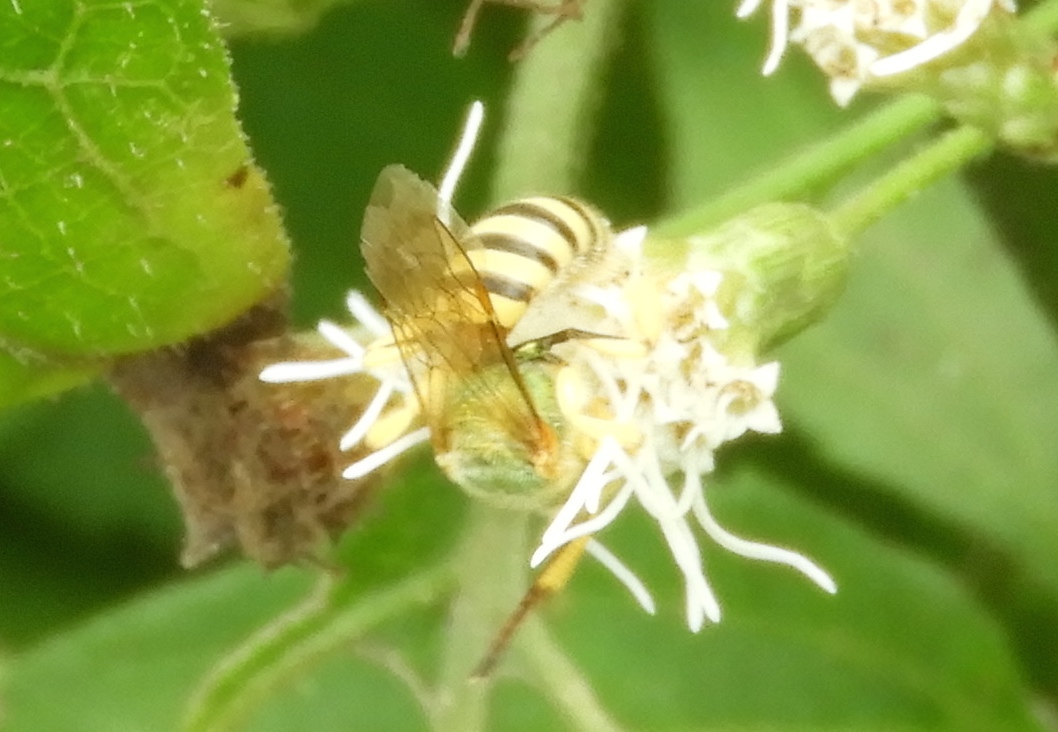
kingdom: Animalia
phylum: Arthropoda
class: Insecta
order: Hymenoptera
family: Halictidae
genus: Agapostemon
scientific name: Agapostemon nasutus
